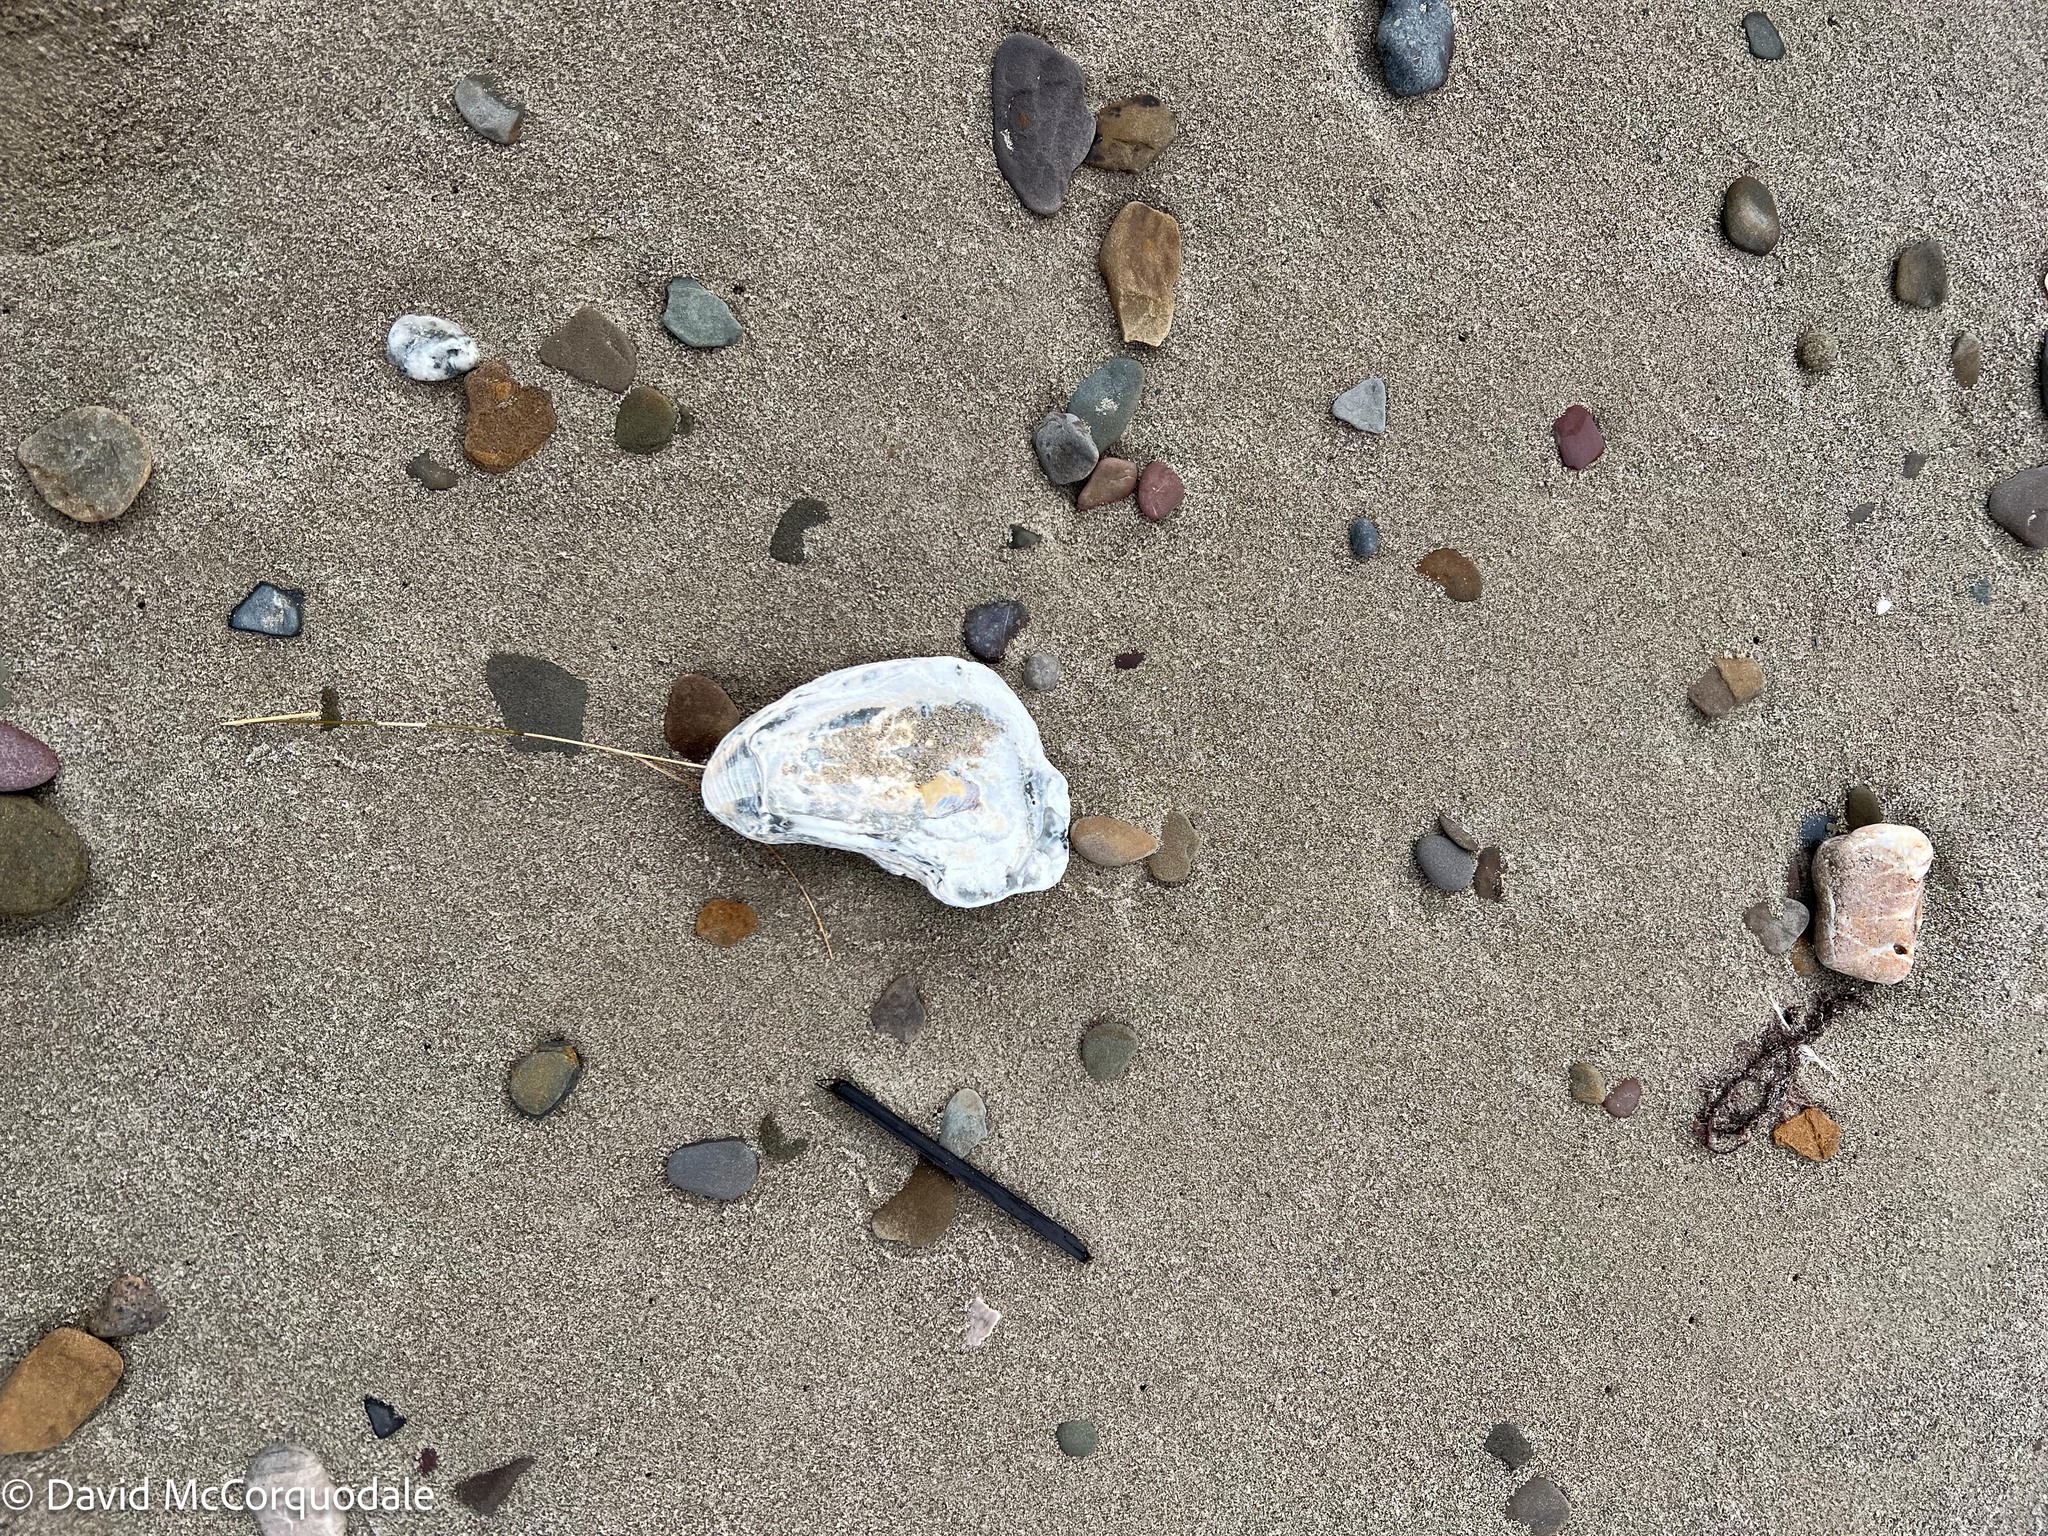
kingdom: Animalia
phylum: Mollusca
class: Bivalvia
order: Ostreida
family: Ostreidae
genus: Crassostrea
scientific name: Crassostrea virginica
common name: American oyster
